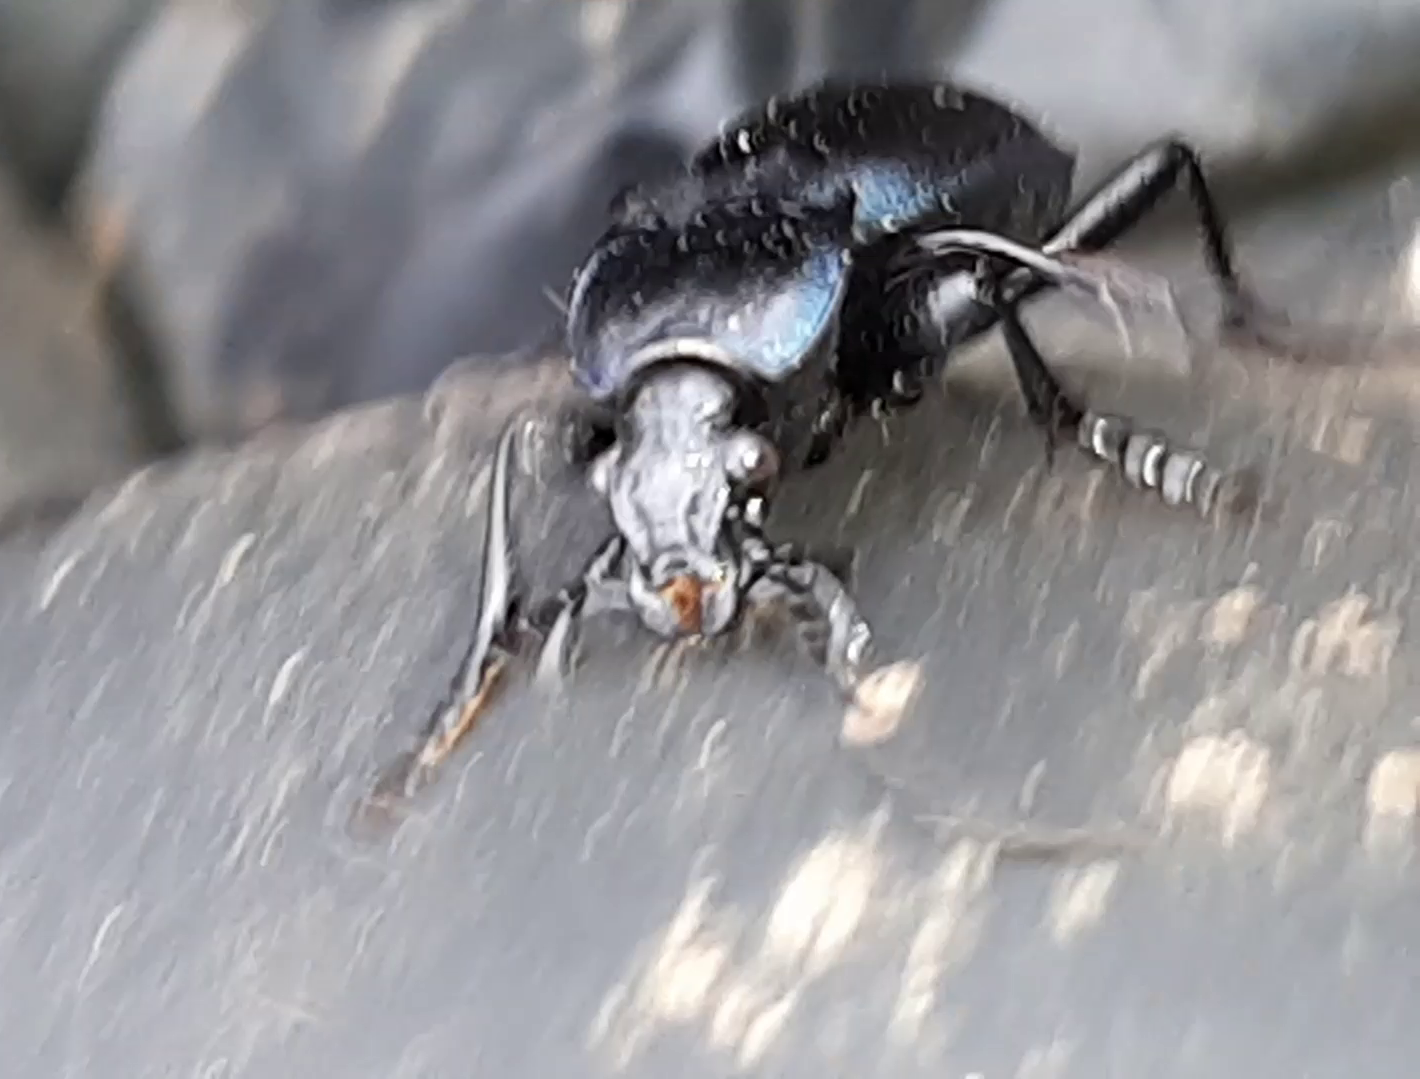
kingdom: Animalia
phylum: Arthropoda
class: Insecta
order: Coleoptera
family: Carabidae
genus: Carabus
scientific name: Carabus convexus
